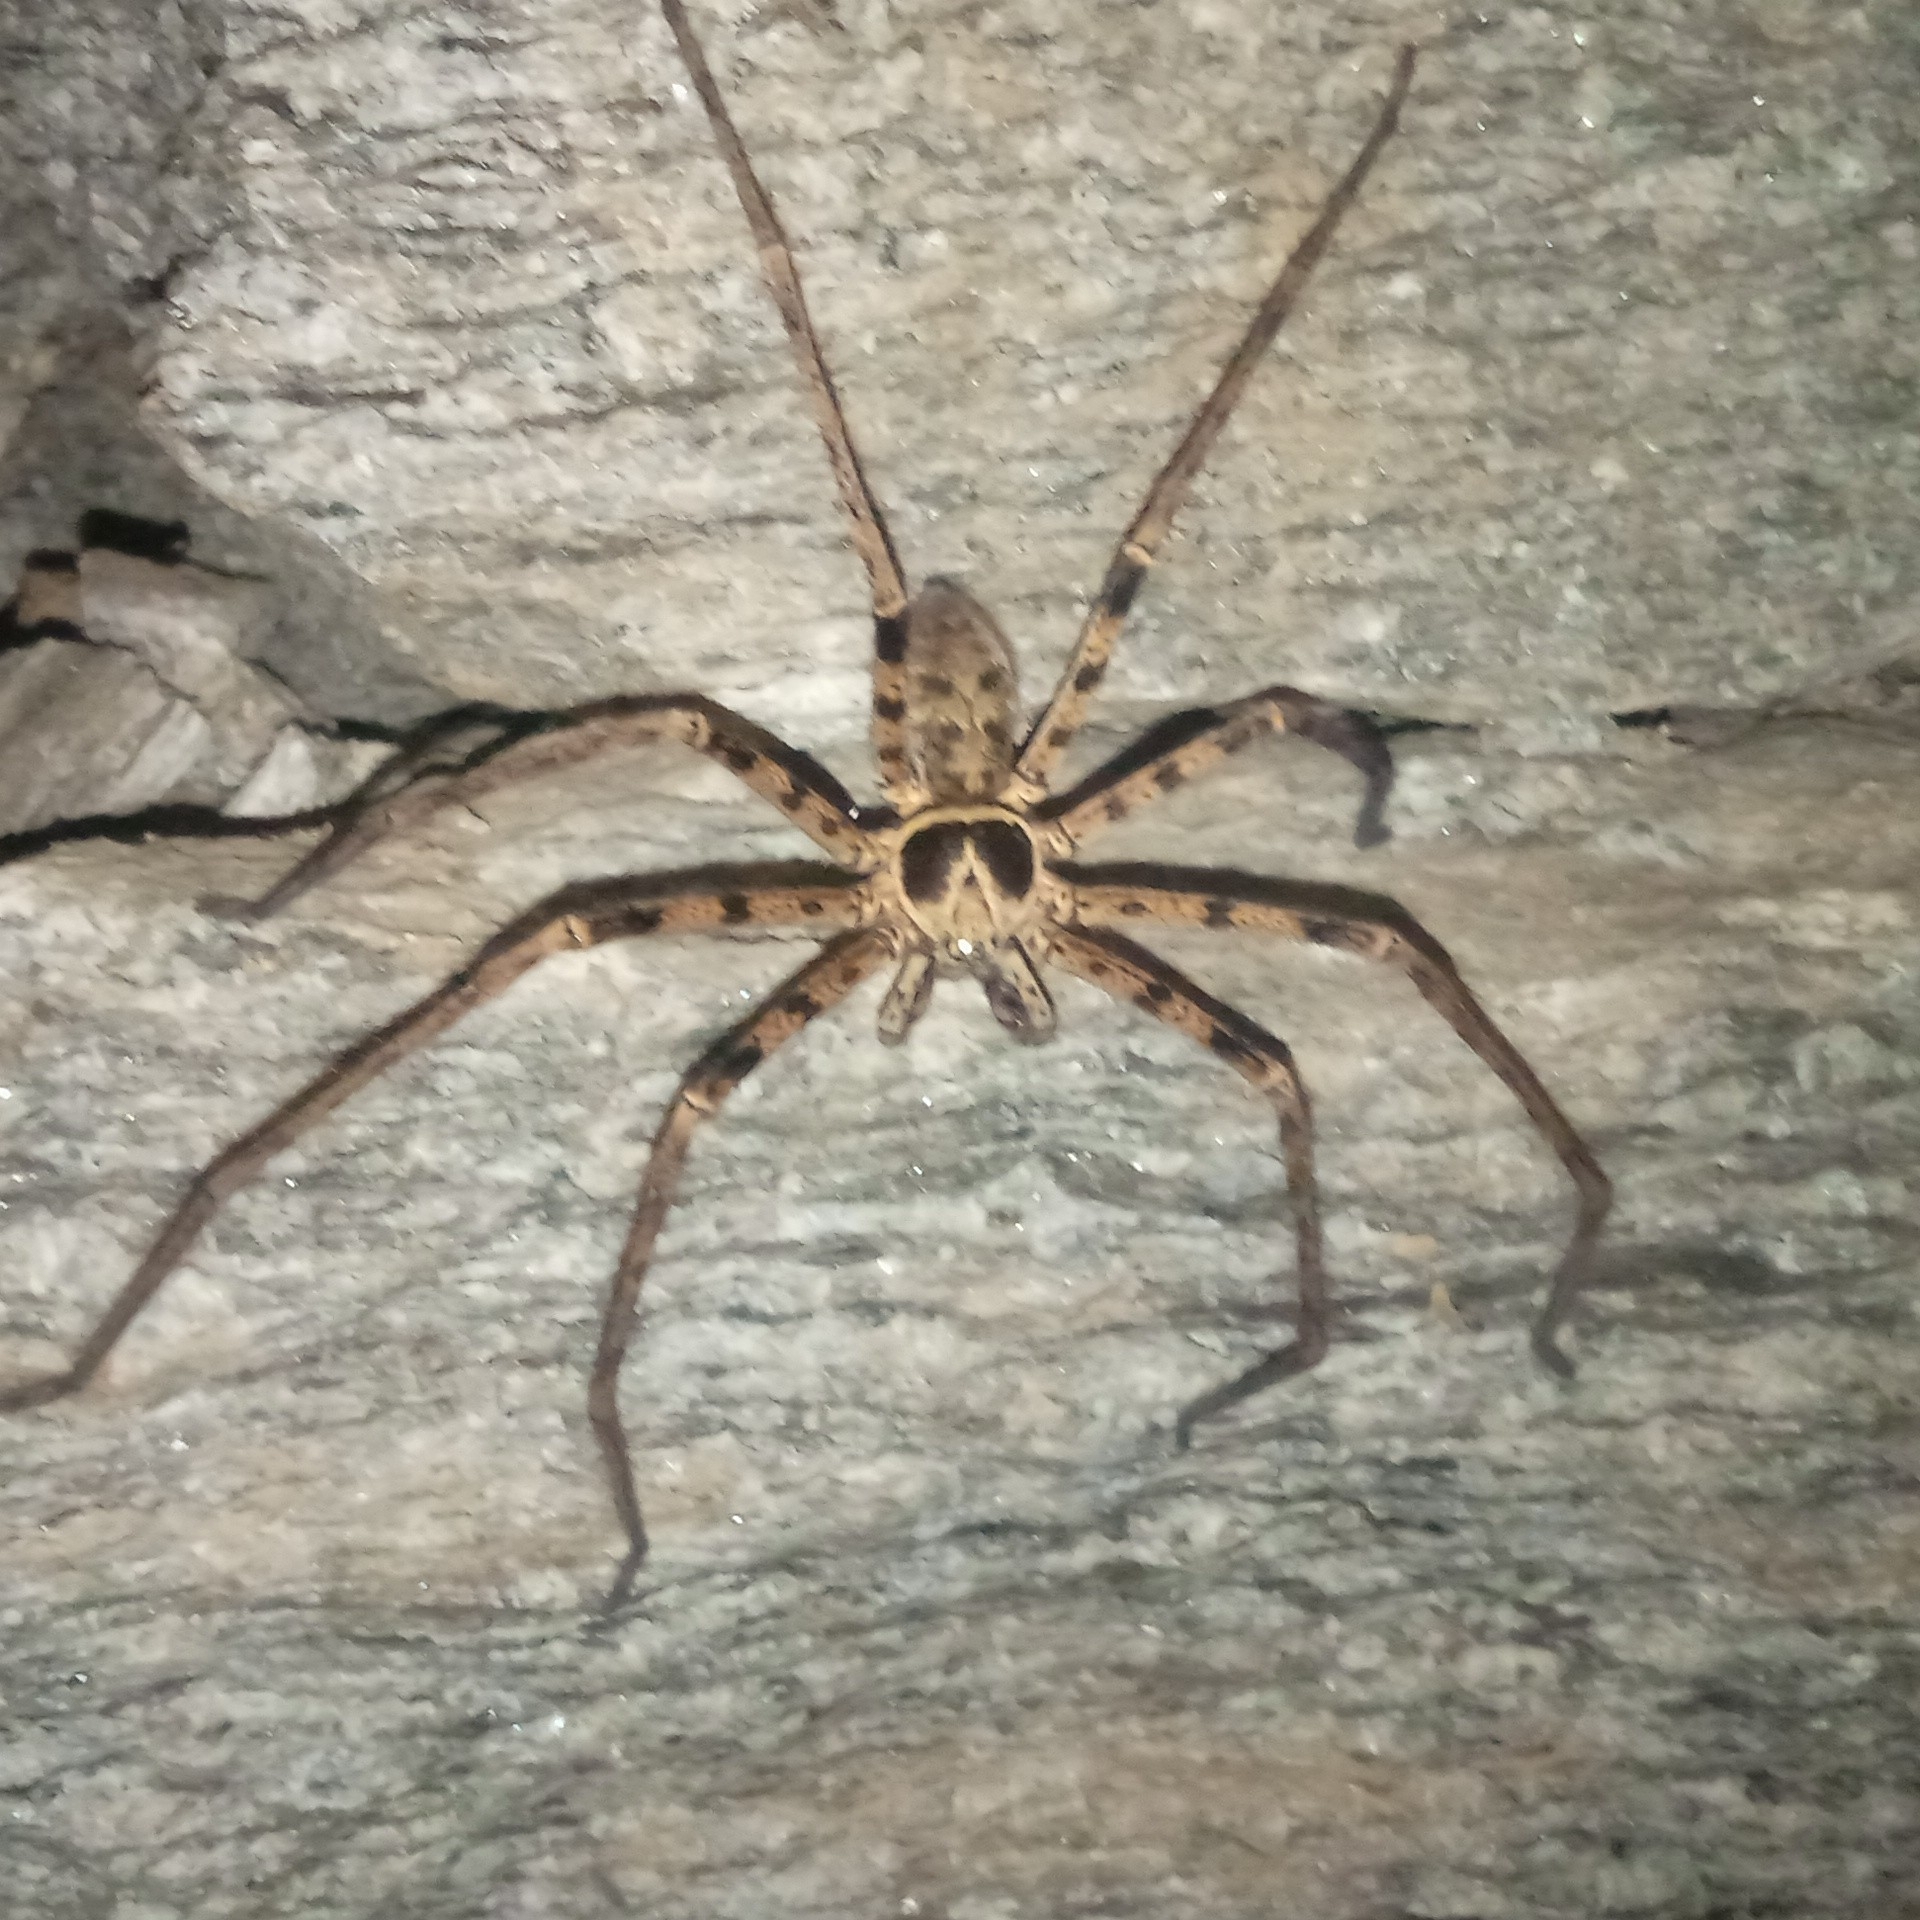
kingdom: Animalia
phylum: Arthropoda
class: Arachnida
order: Araneae
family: Sparassidae
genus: Heteropoda
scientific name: Heteropoda venatoria
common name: Huntsman spider
